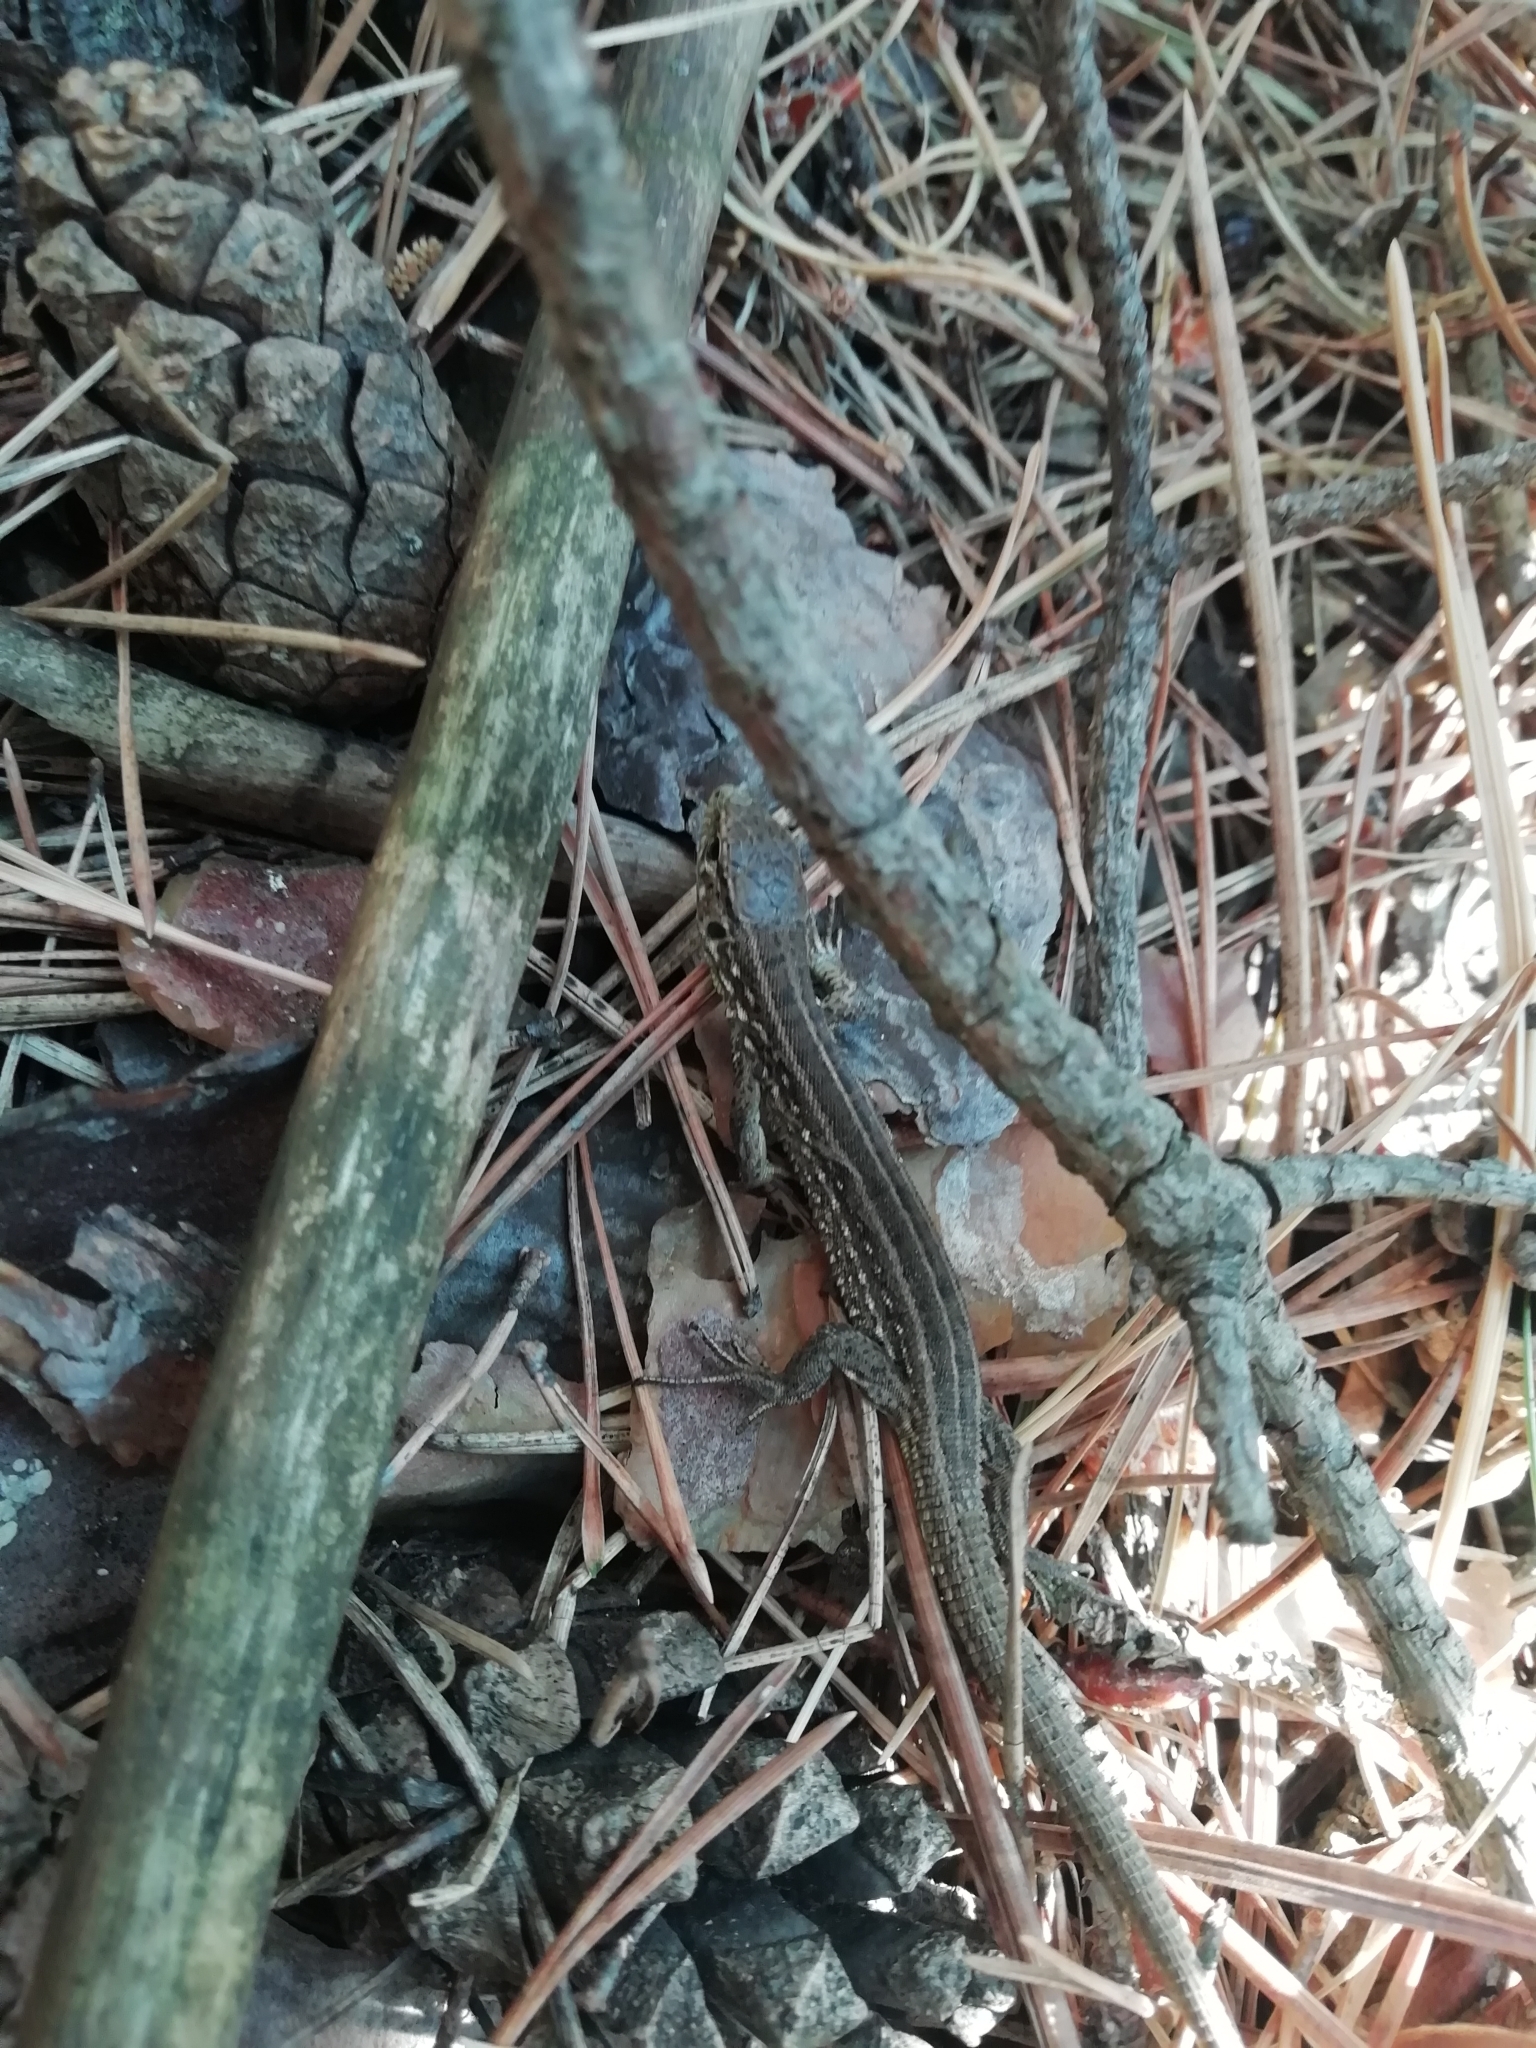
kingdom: Animalia
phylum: Chordata
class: Squamata
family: Lacertidae
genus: Lacerta
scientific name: Lacerta agilis
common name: Sand lizard
